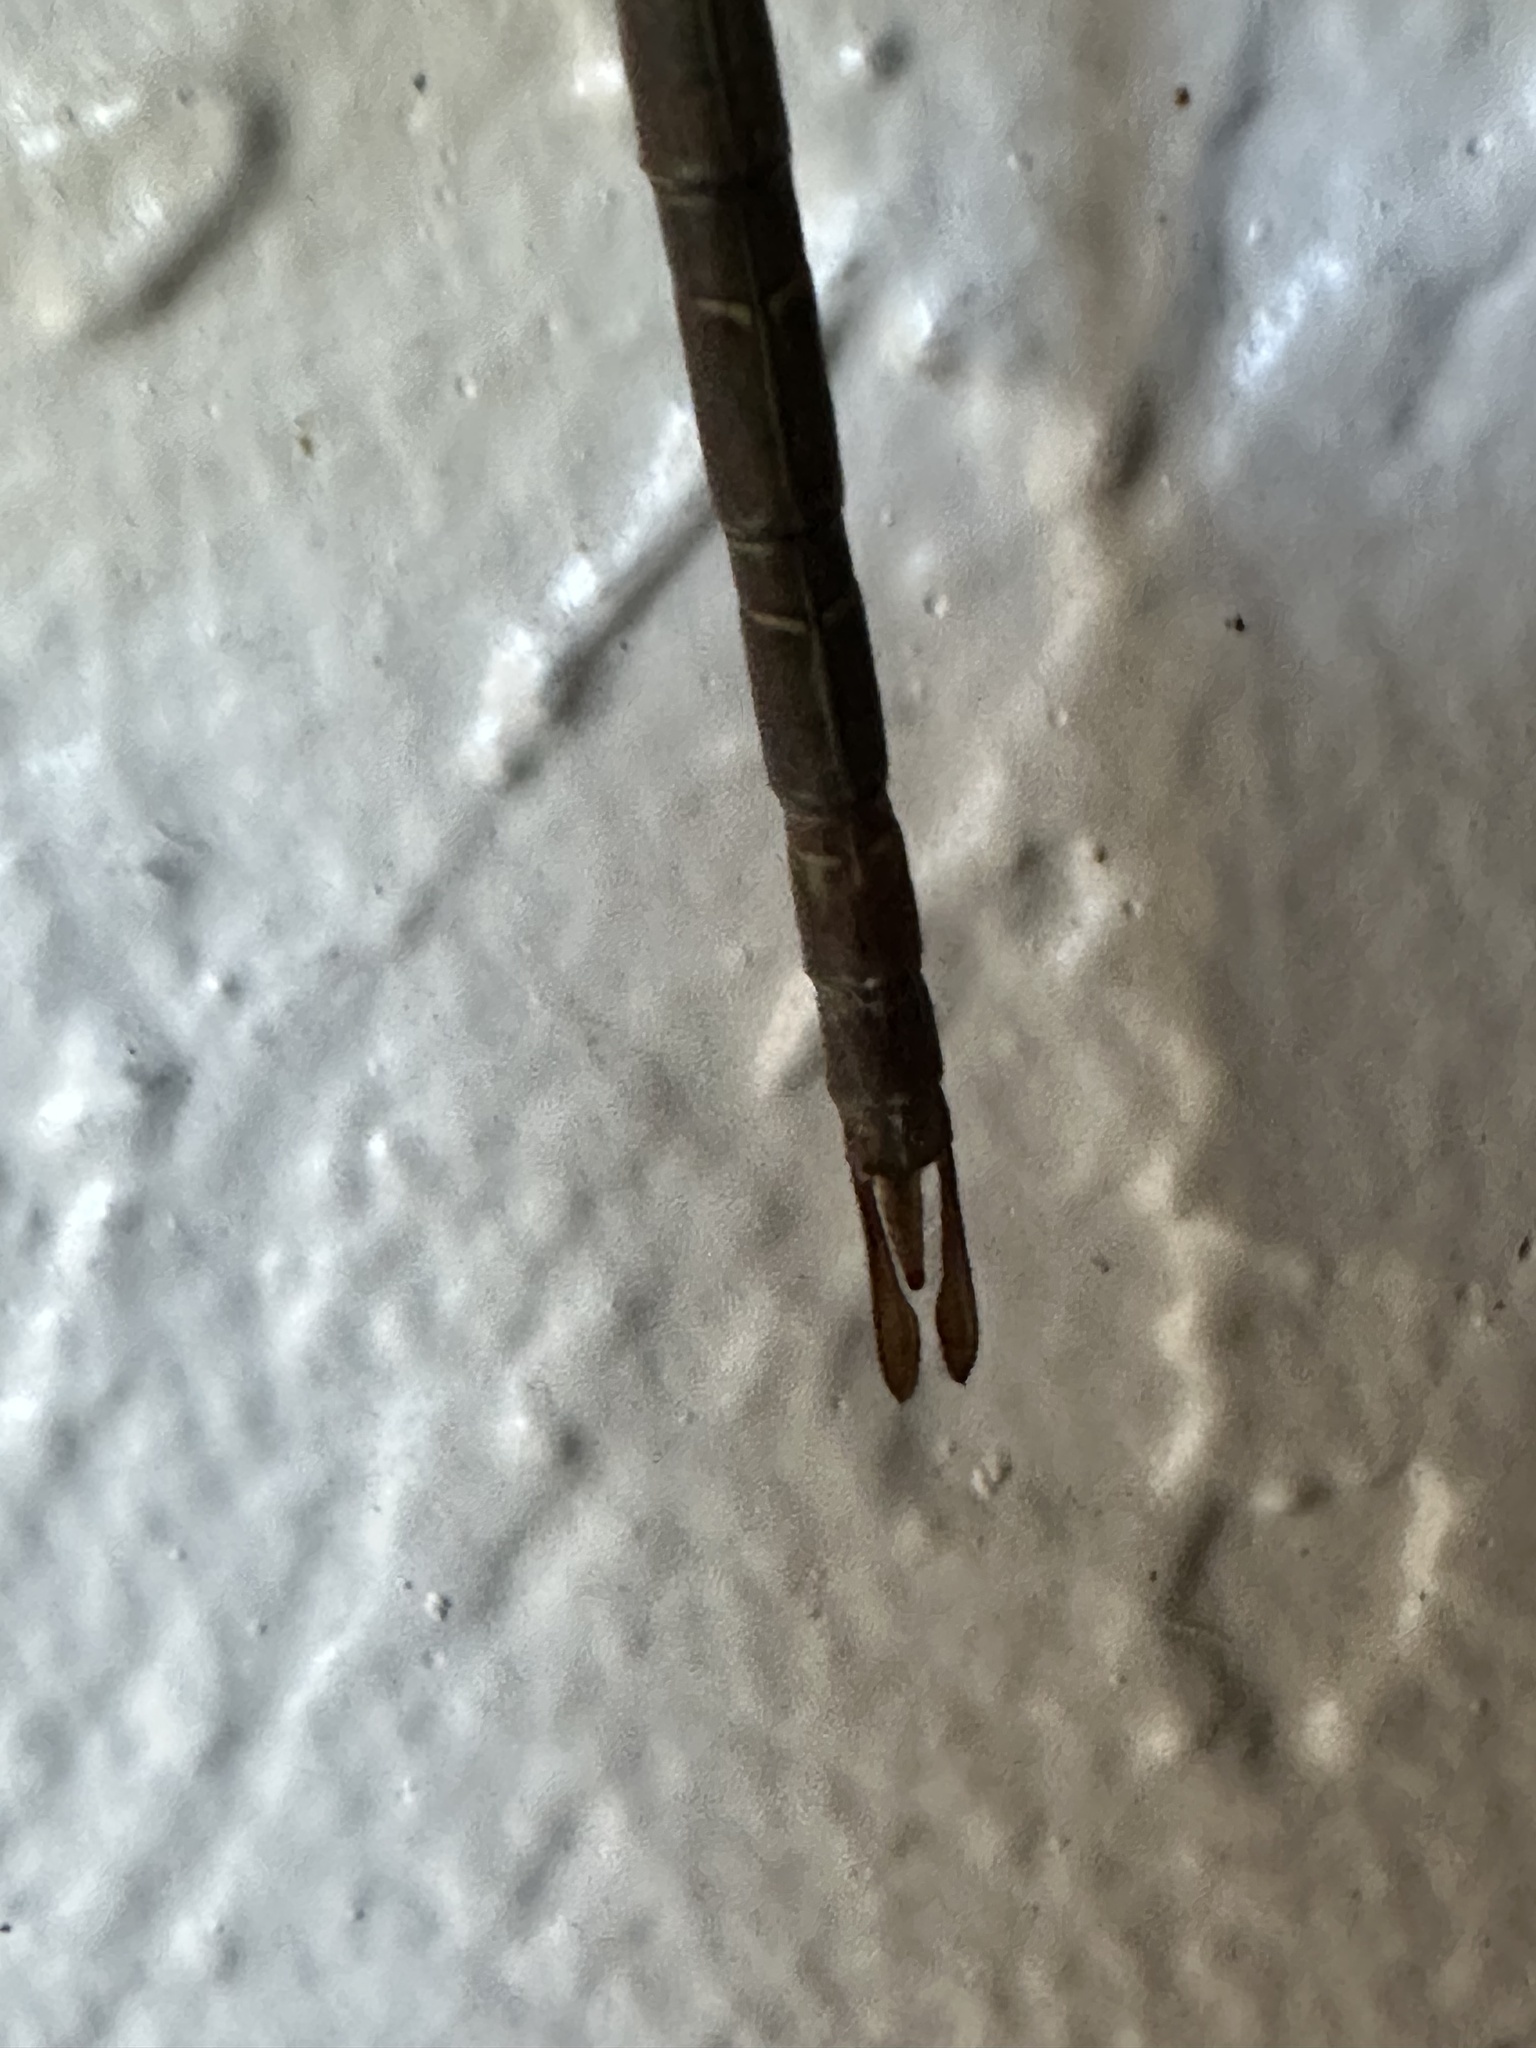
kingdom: Animalia
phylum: Arthropoda
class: Insecta
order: Odonata
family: Aeshnidae
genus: Gynacantha
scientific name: Gynacantha nervosa
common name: Twilight darner
